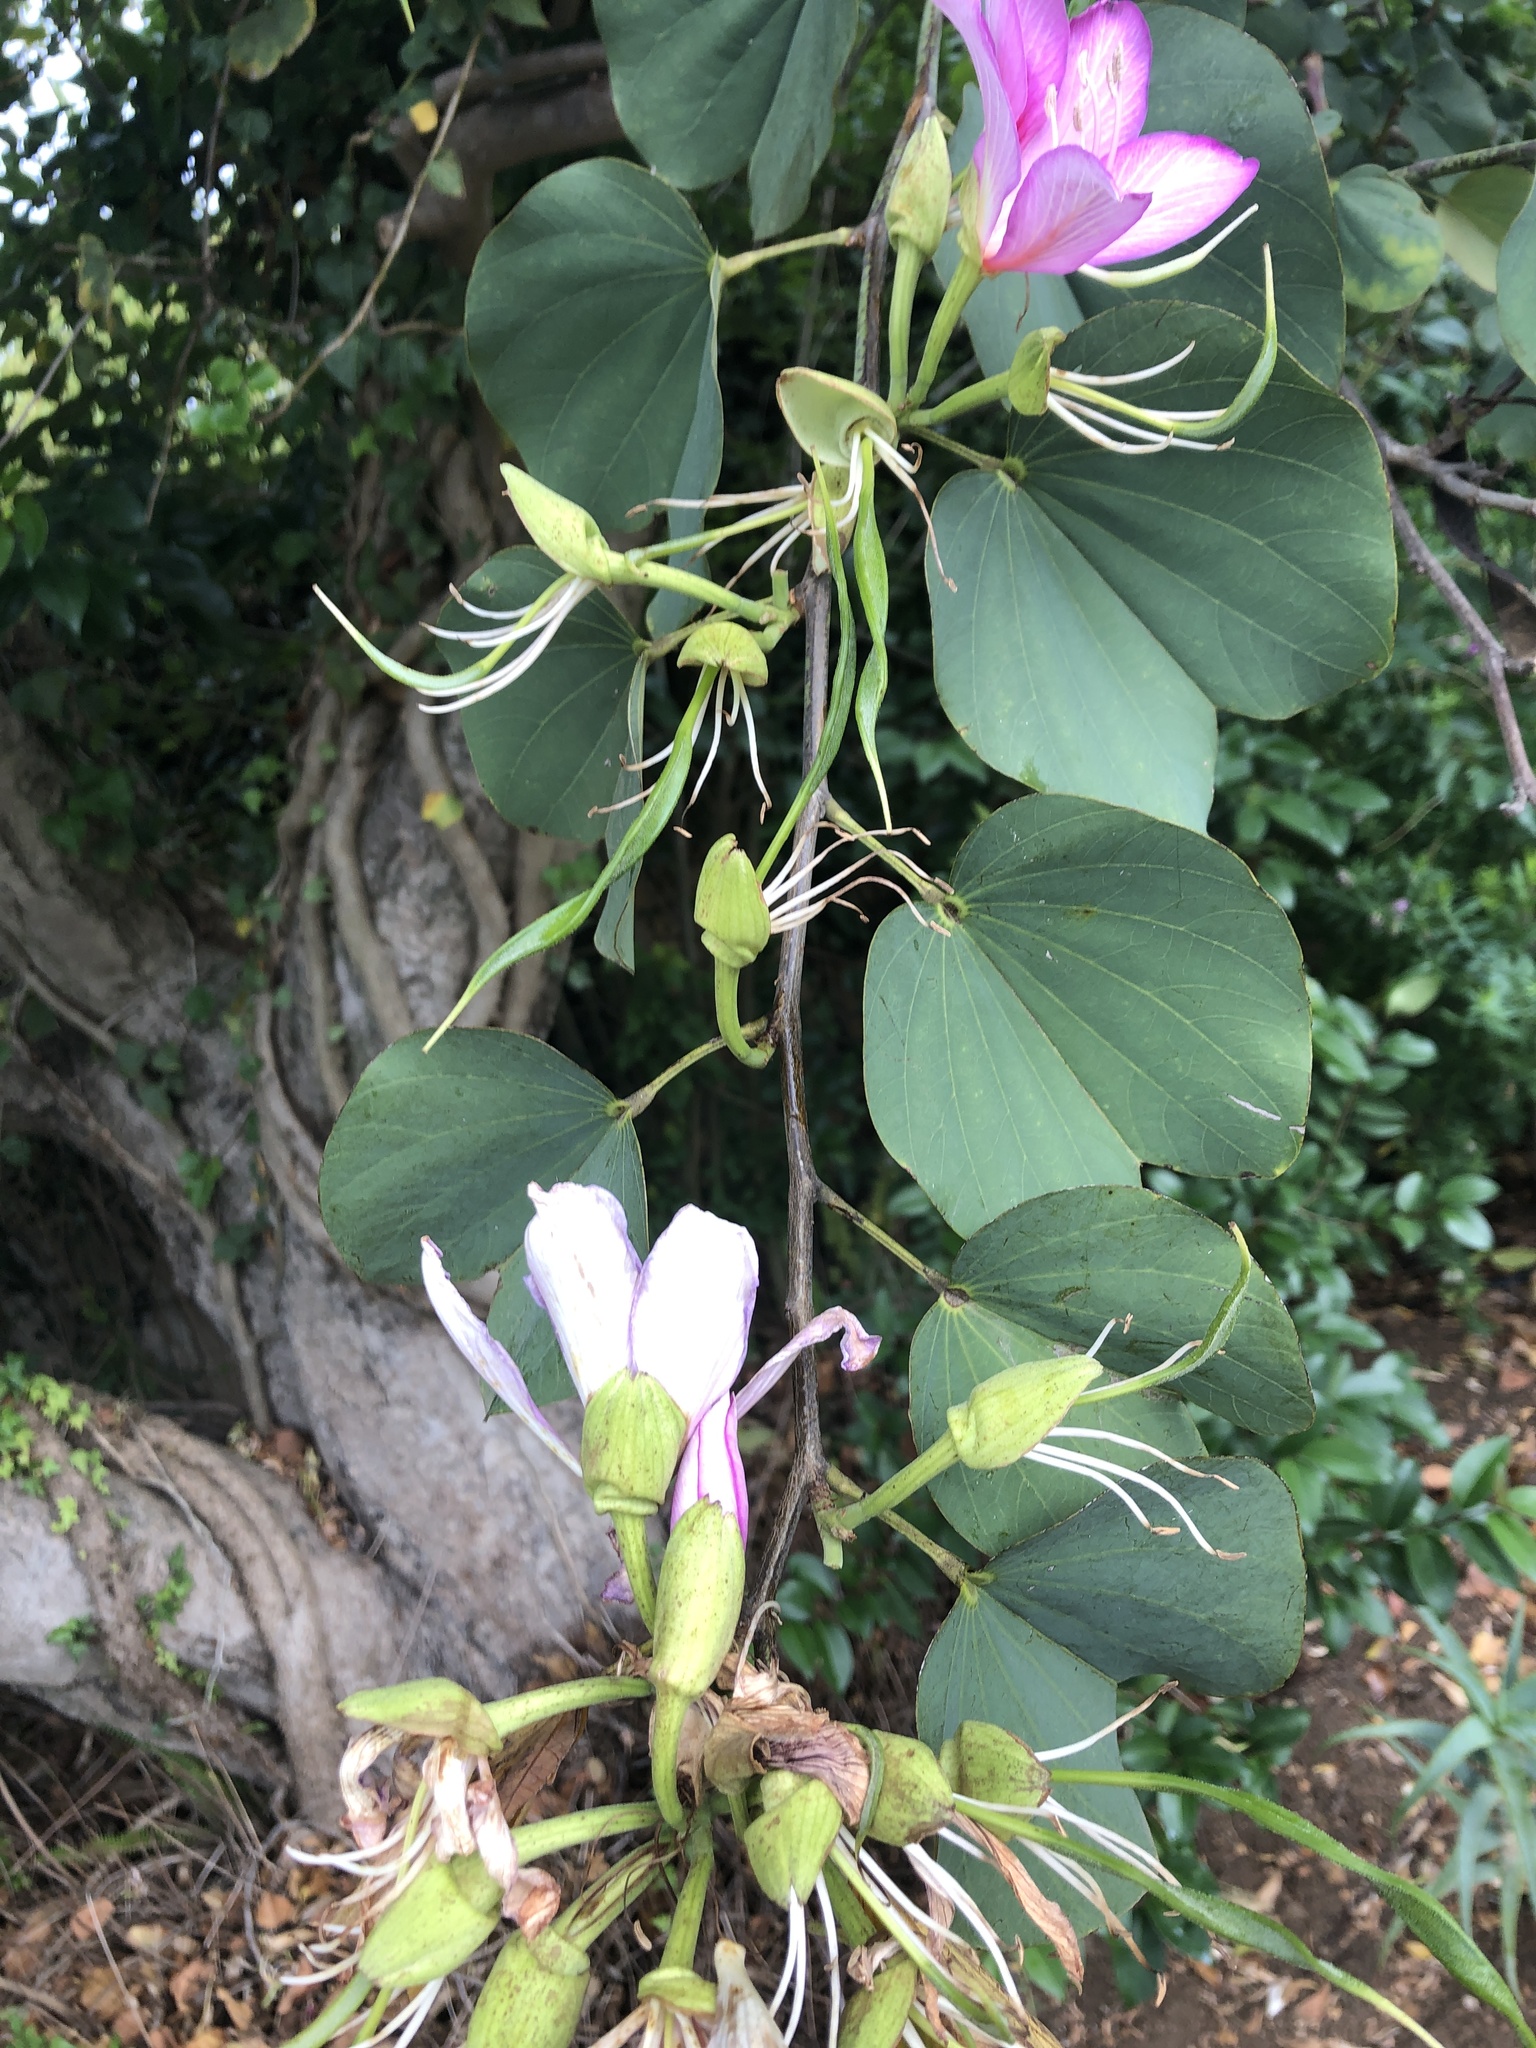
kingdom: Plantae
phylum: Tracheophyta
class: Magnoliopsida
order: Fabales
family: Fabaceae
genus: Bauhinia
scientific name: Bauhinia variegata
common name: Mountain ebony
